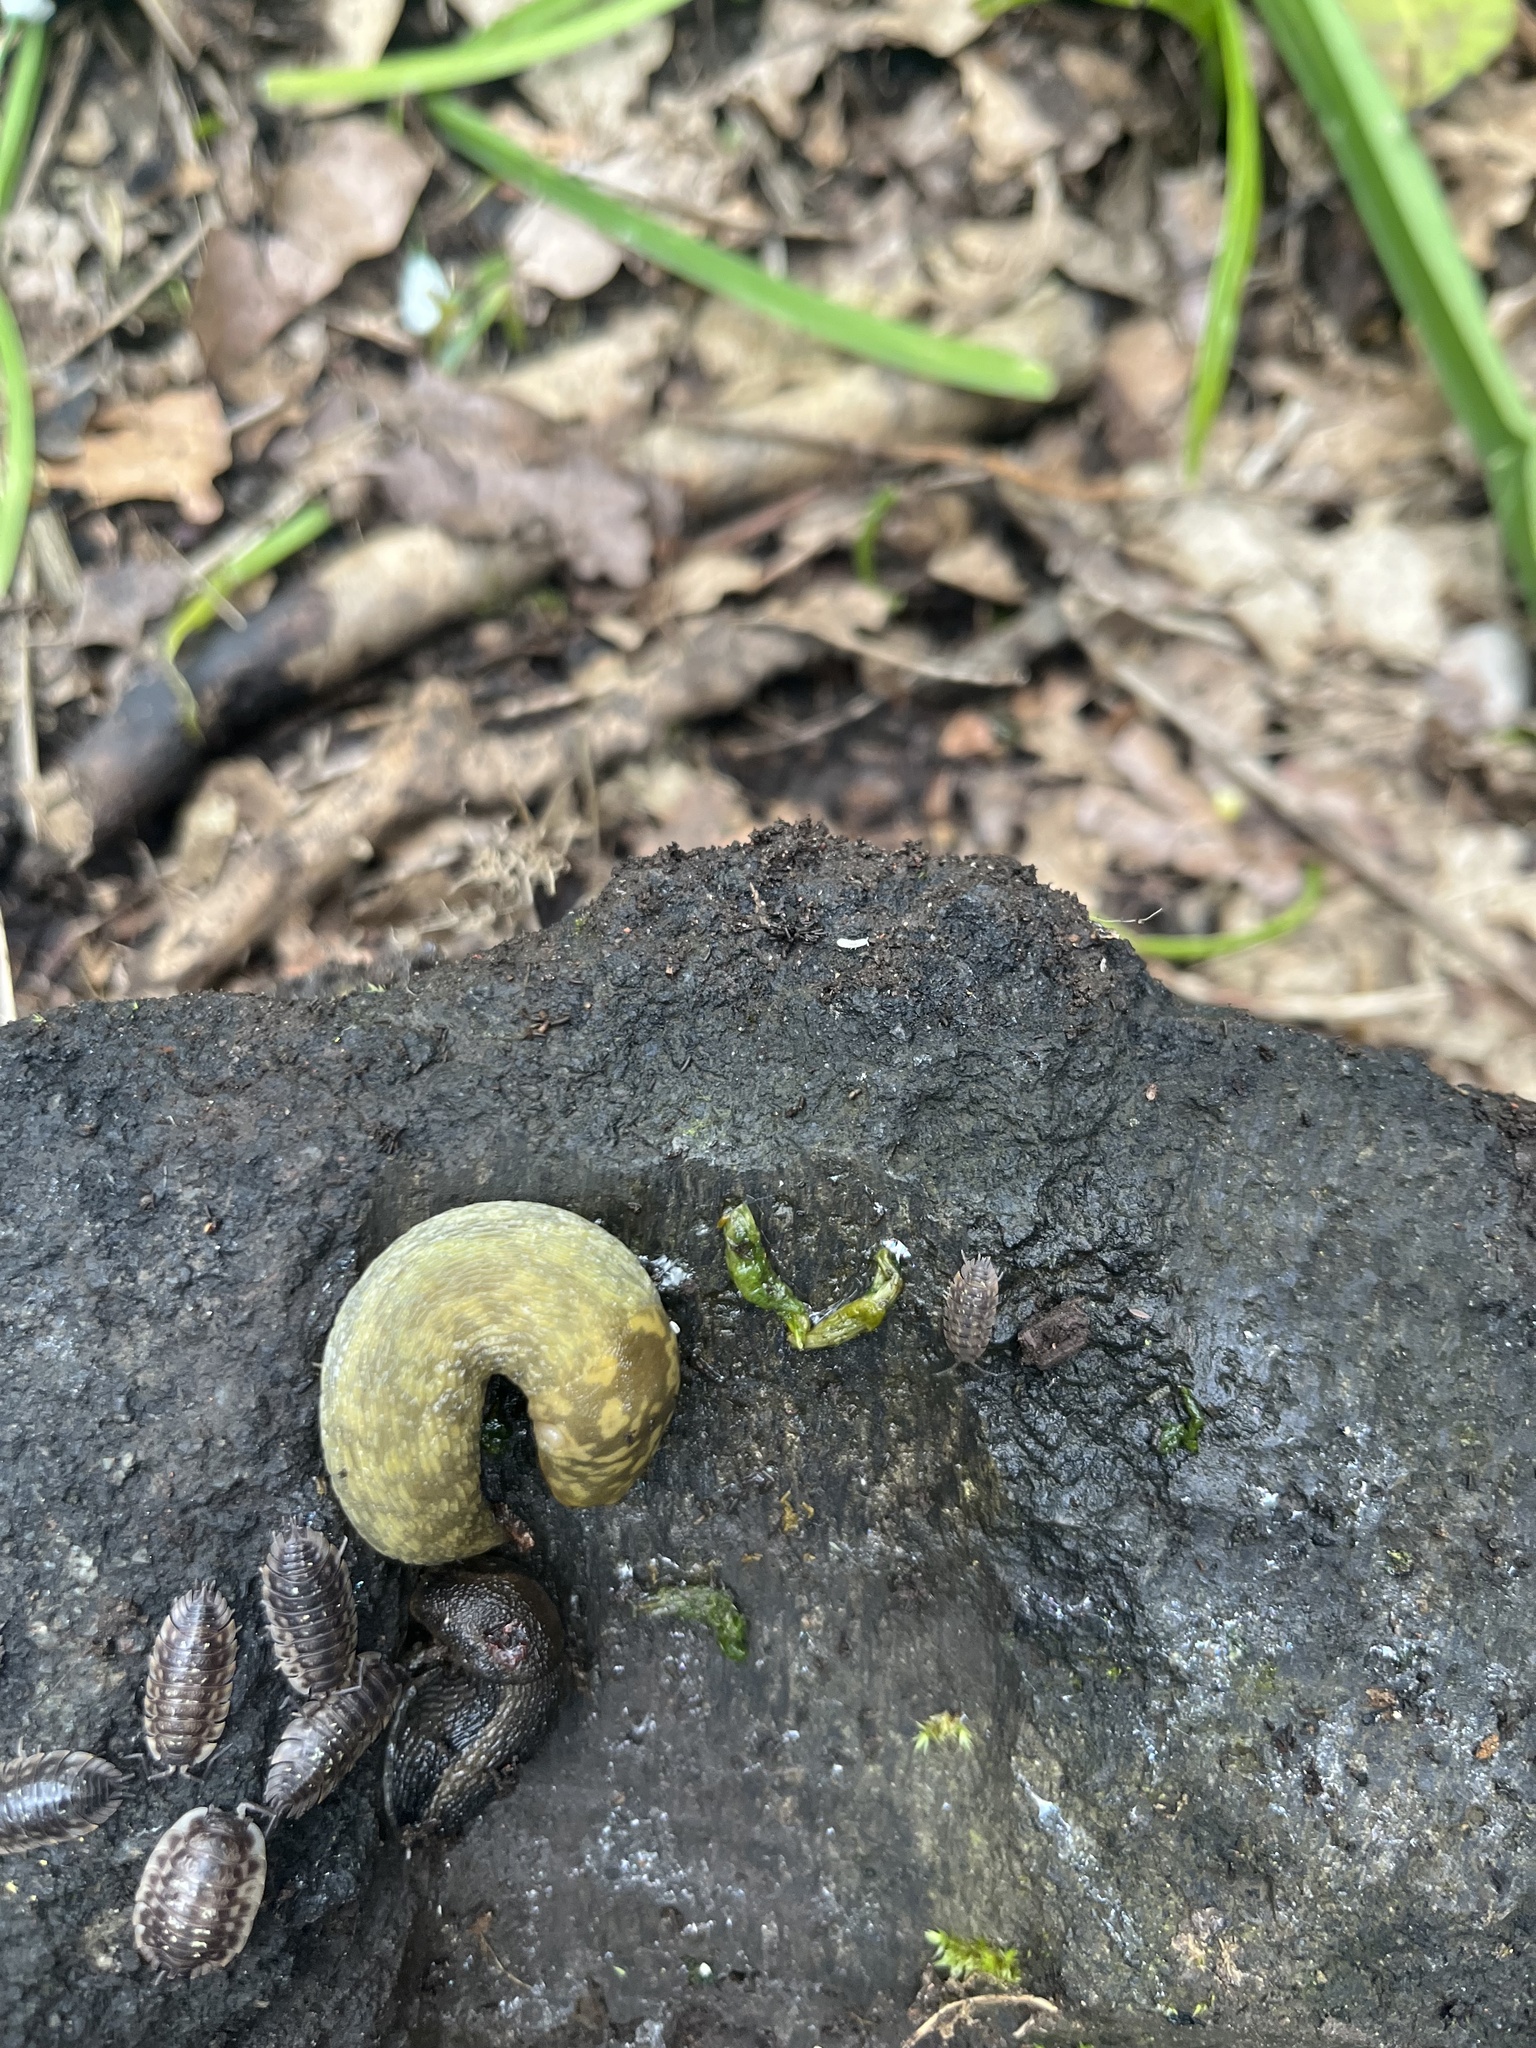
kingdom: Animalia
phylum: Mollusca
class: Gastropoda
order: Stylommatophora
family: Limacidae
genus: Limacus
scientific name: Limacus maculatus
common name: Irish yellow slug
